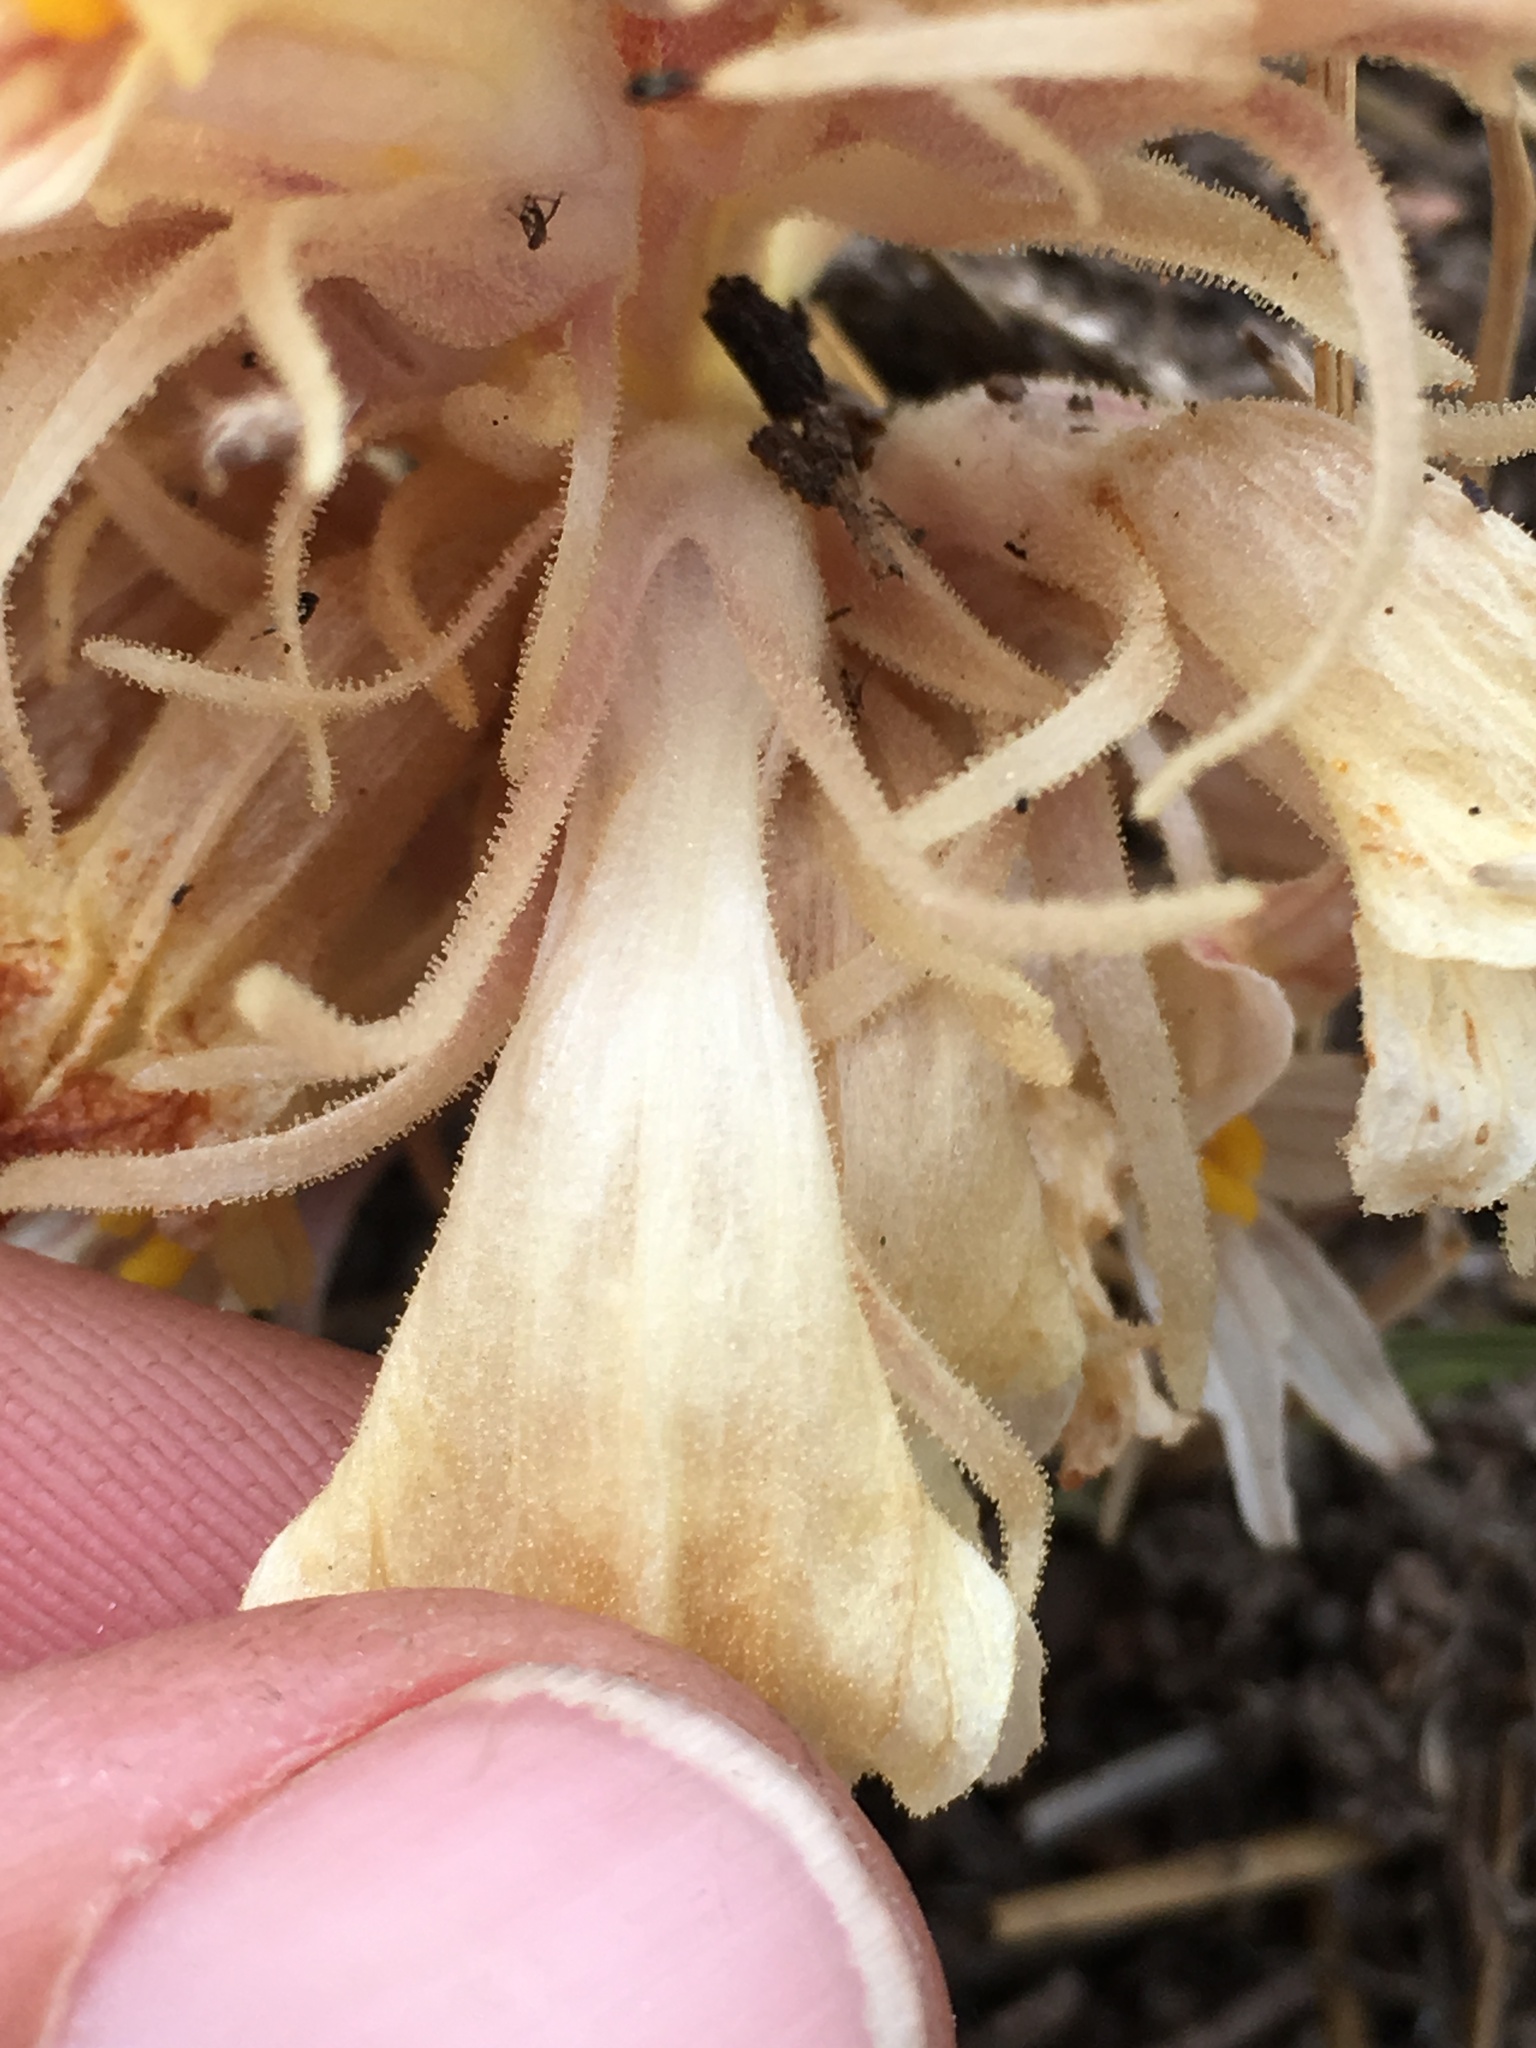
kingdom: Plantae
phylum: Tracheophyta
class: Magnoliopsida
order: Lamiales
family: Orobanchaceae
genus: Aphyllon
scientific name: Aphyllon californicum
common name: California broomrape
